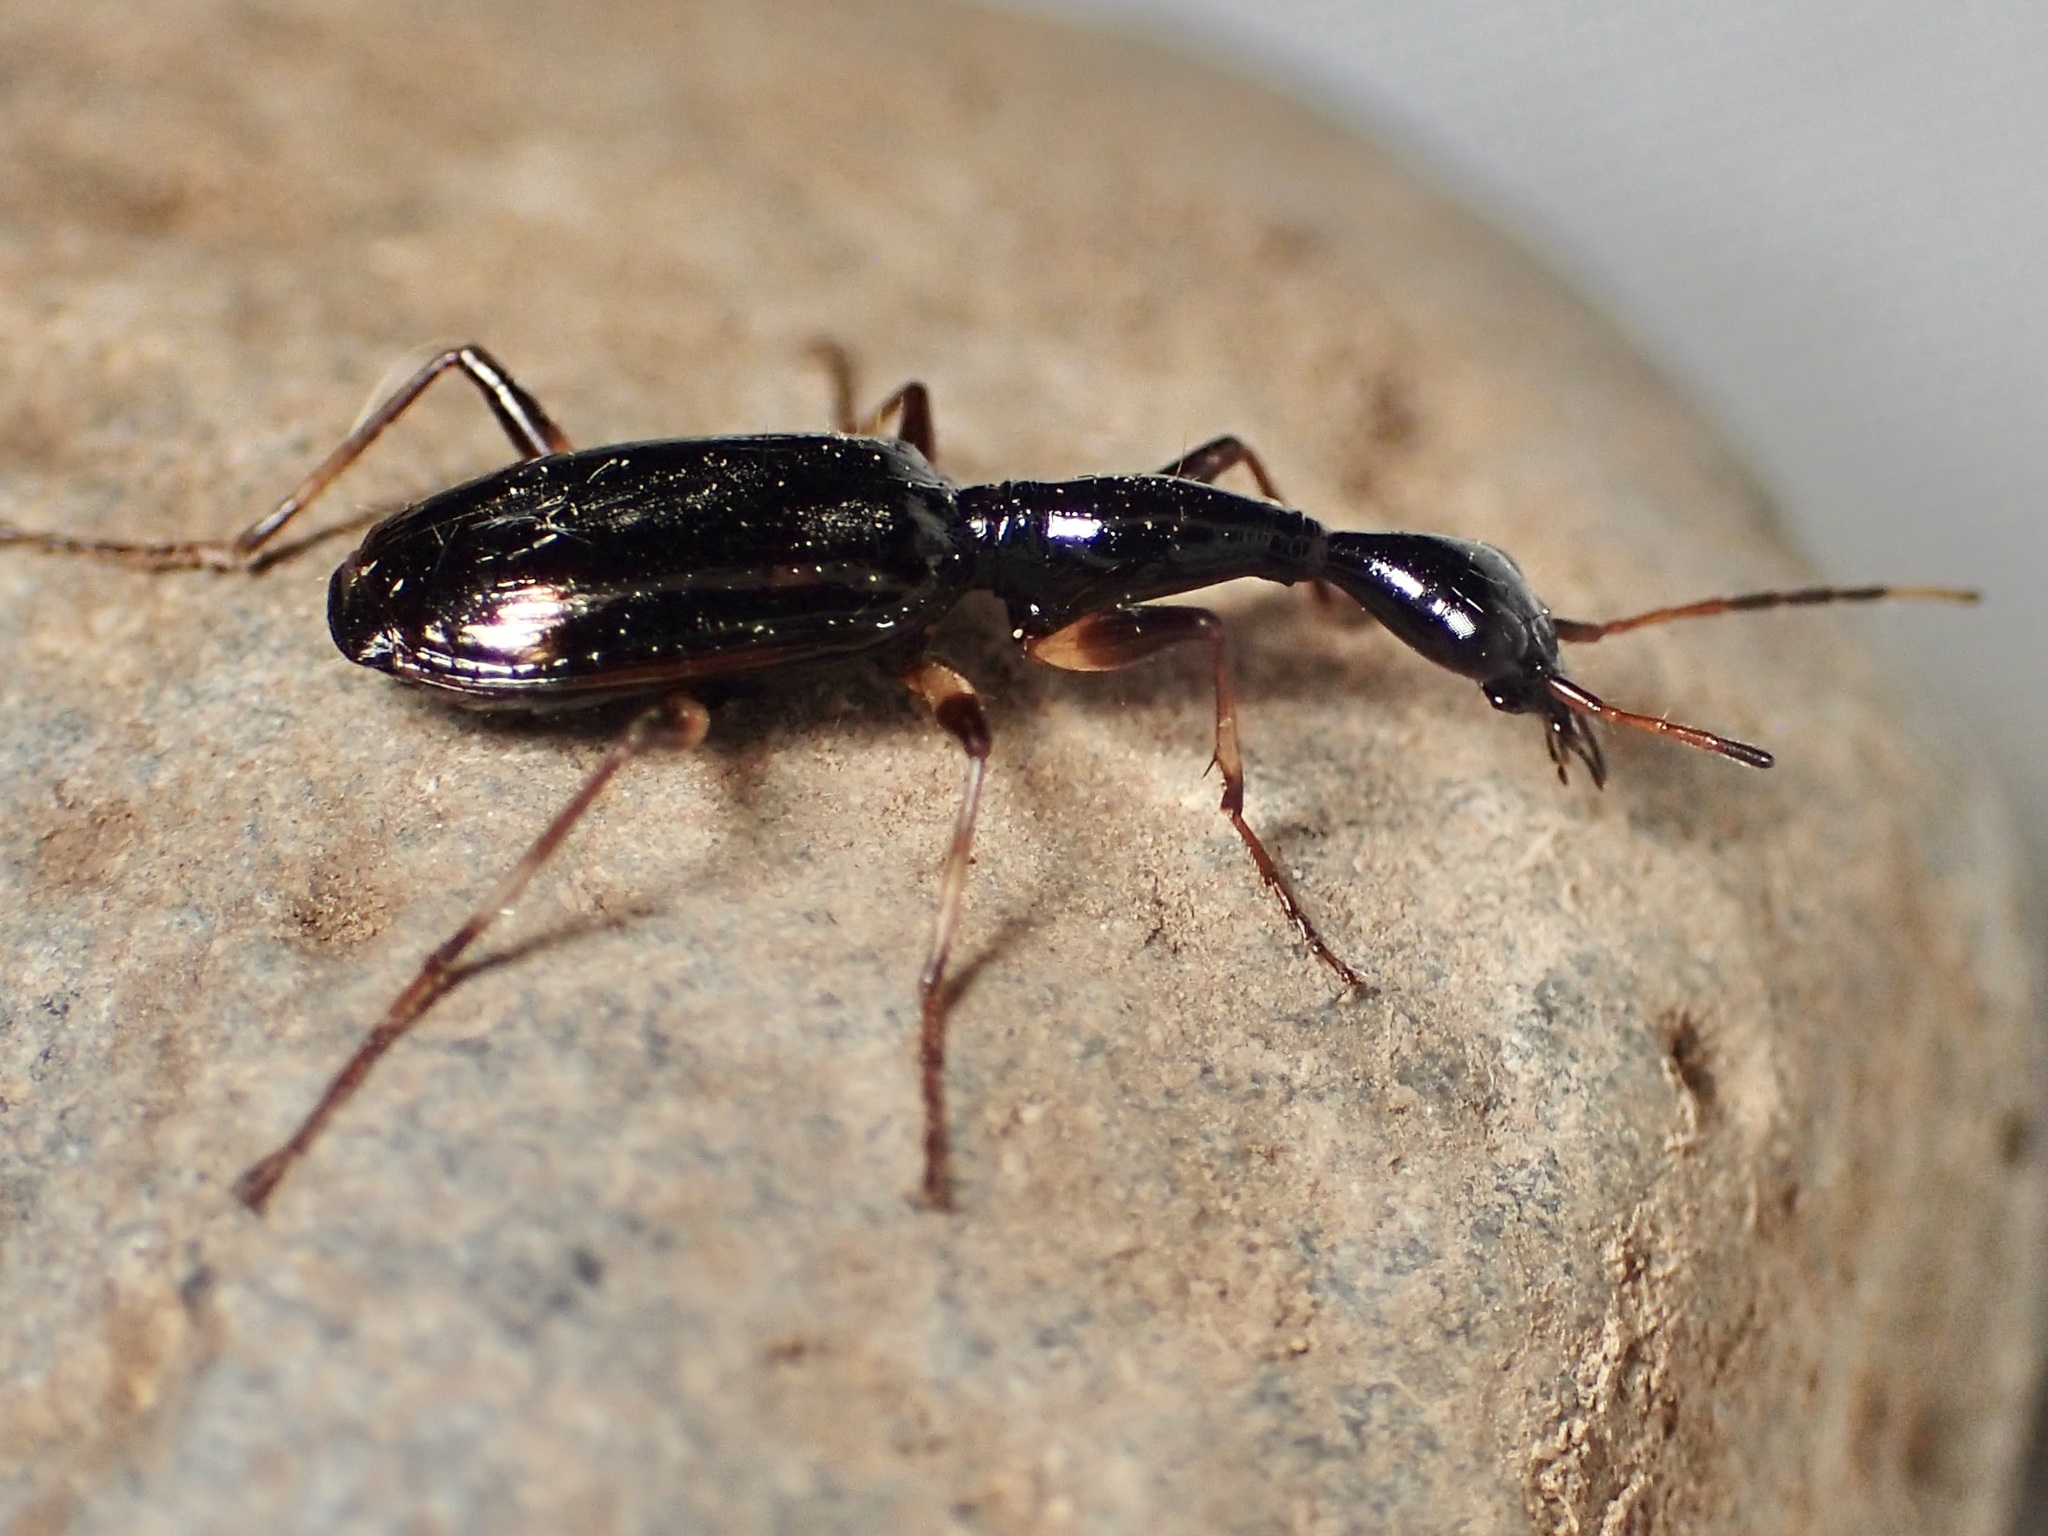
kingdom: Animalia
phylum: Arthropoda
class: Insecta
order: Coleoptera
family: Carabidae
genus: Colliuris
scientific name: Colliuris lioptera
